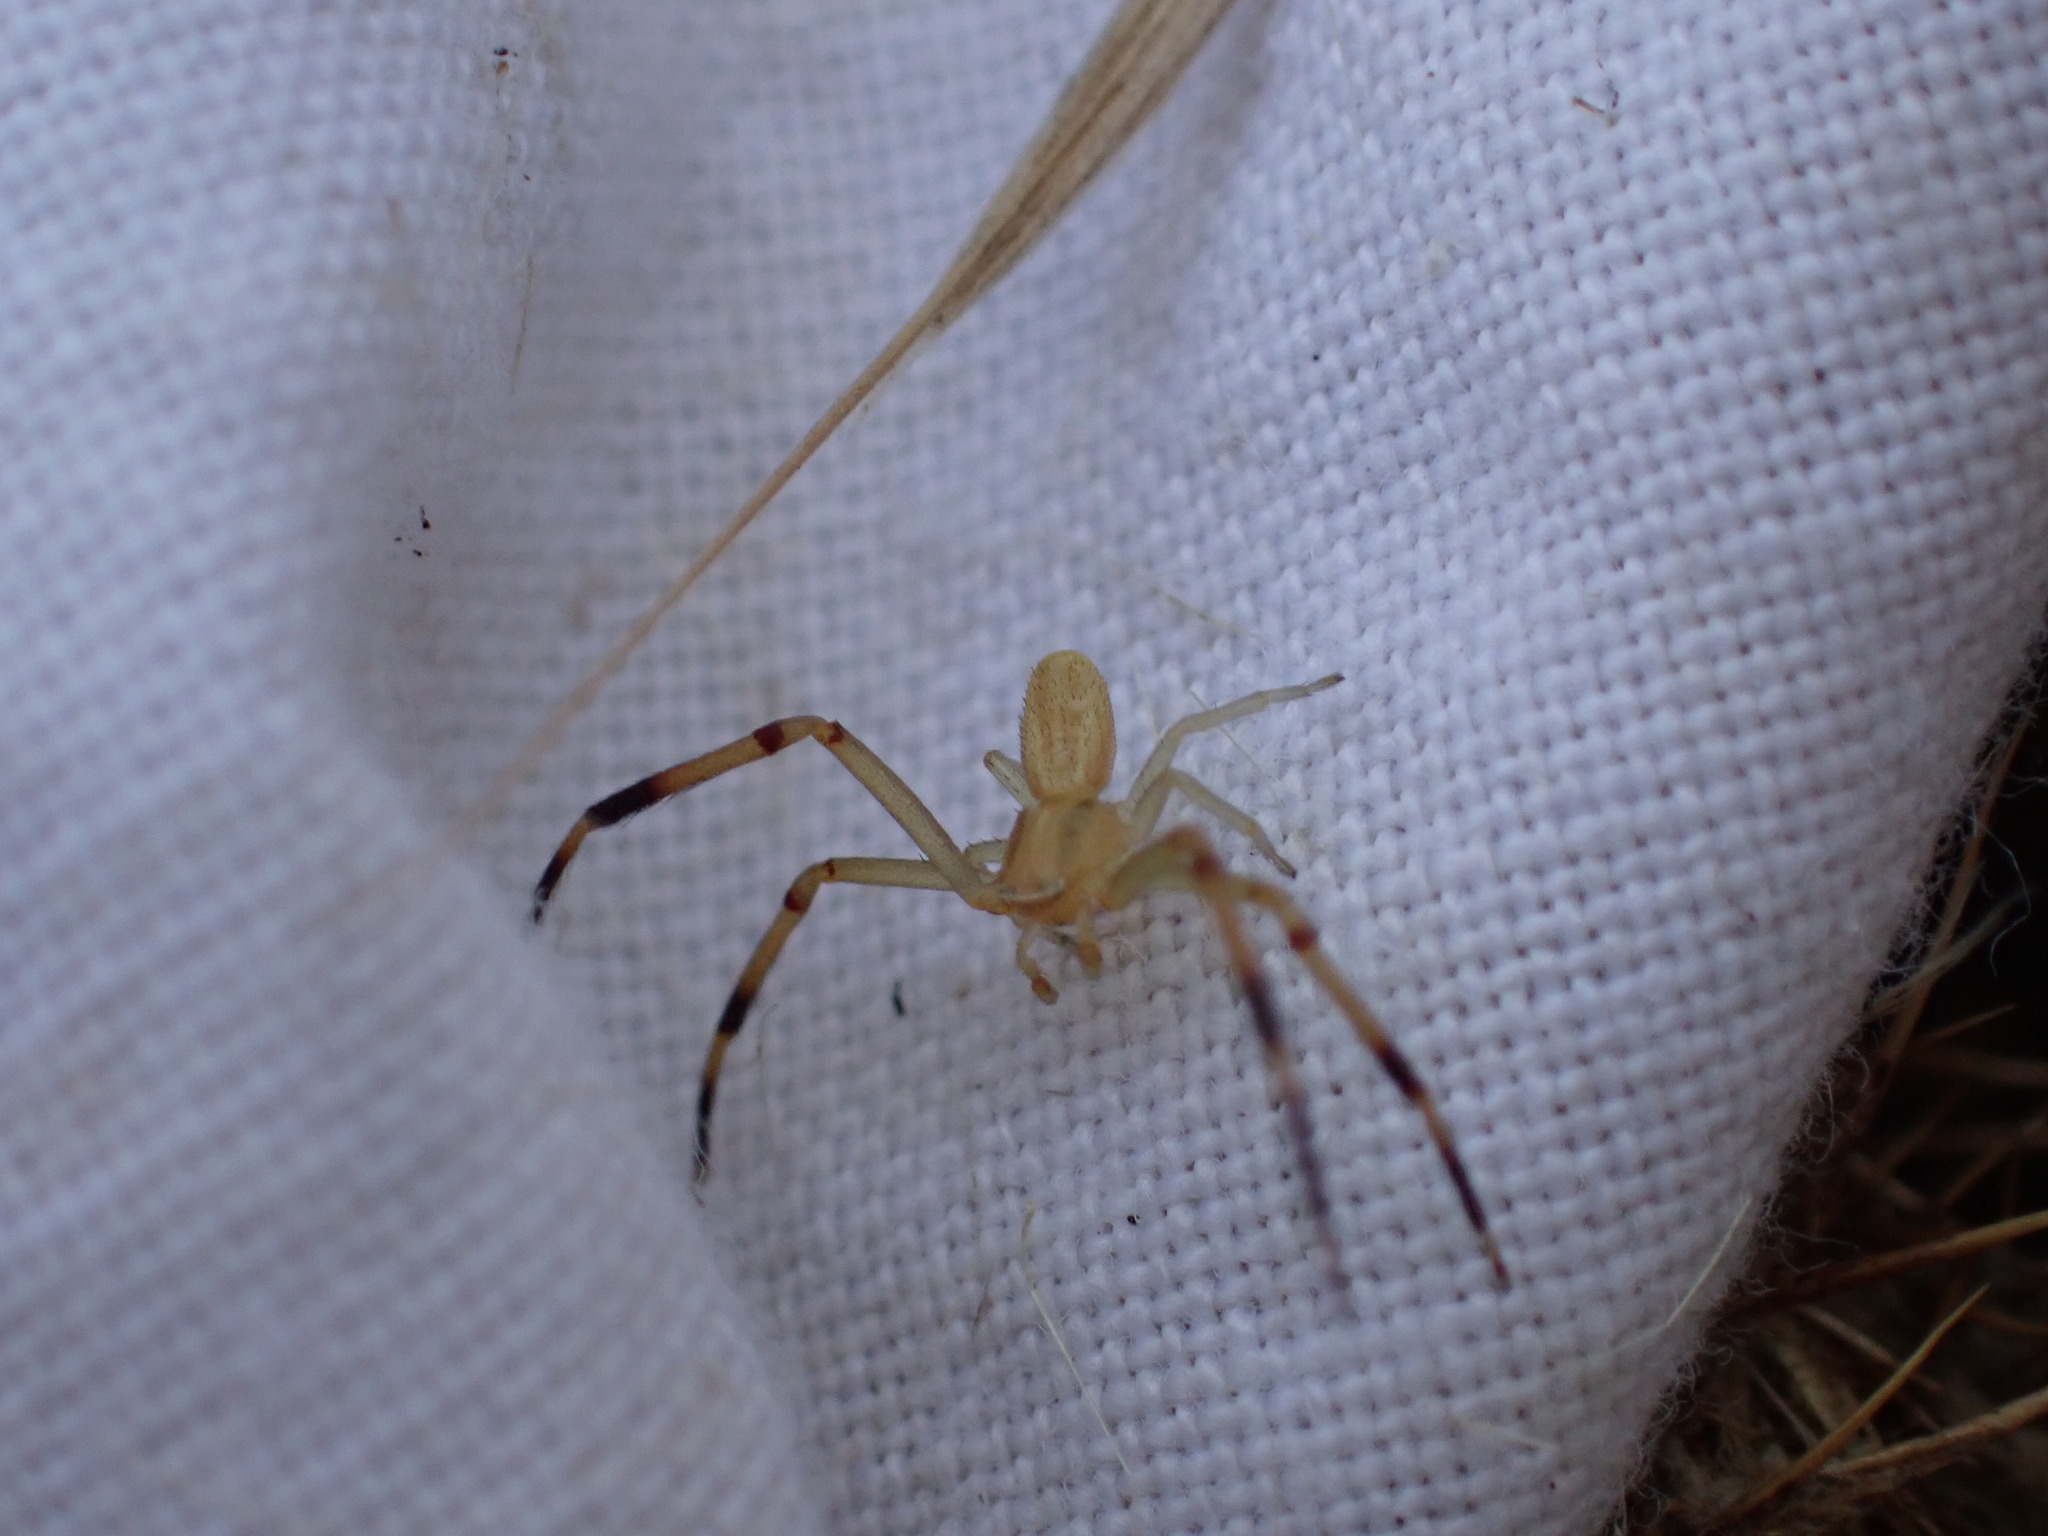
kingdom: Animalia
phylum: Arthropoda
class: Arachnida
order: Araneae
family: Thomisidae
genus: Runcinia
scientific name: Runcinia grammica
